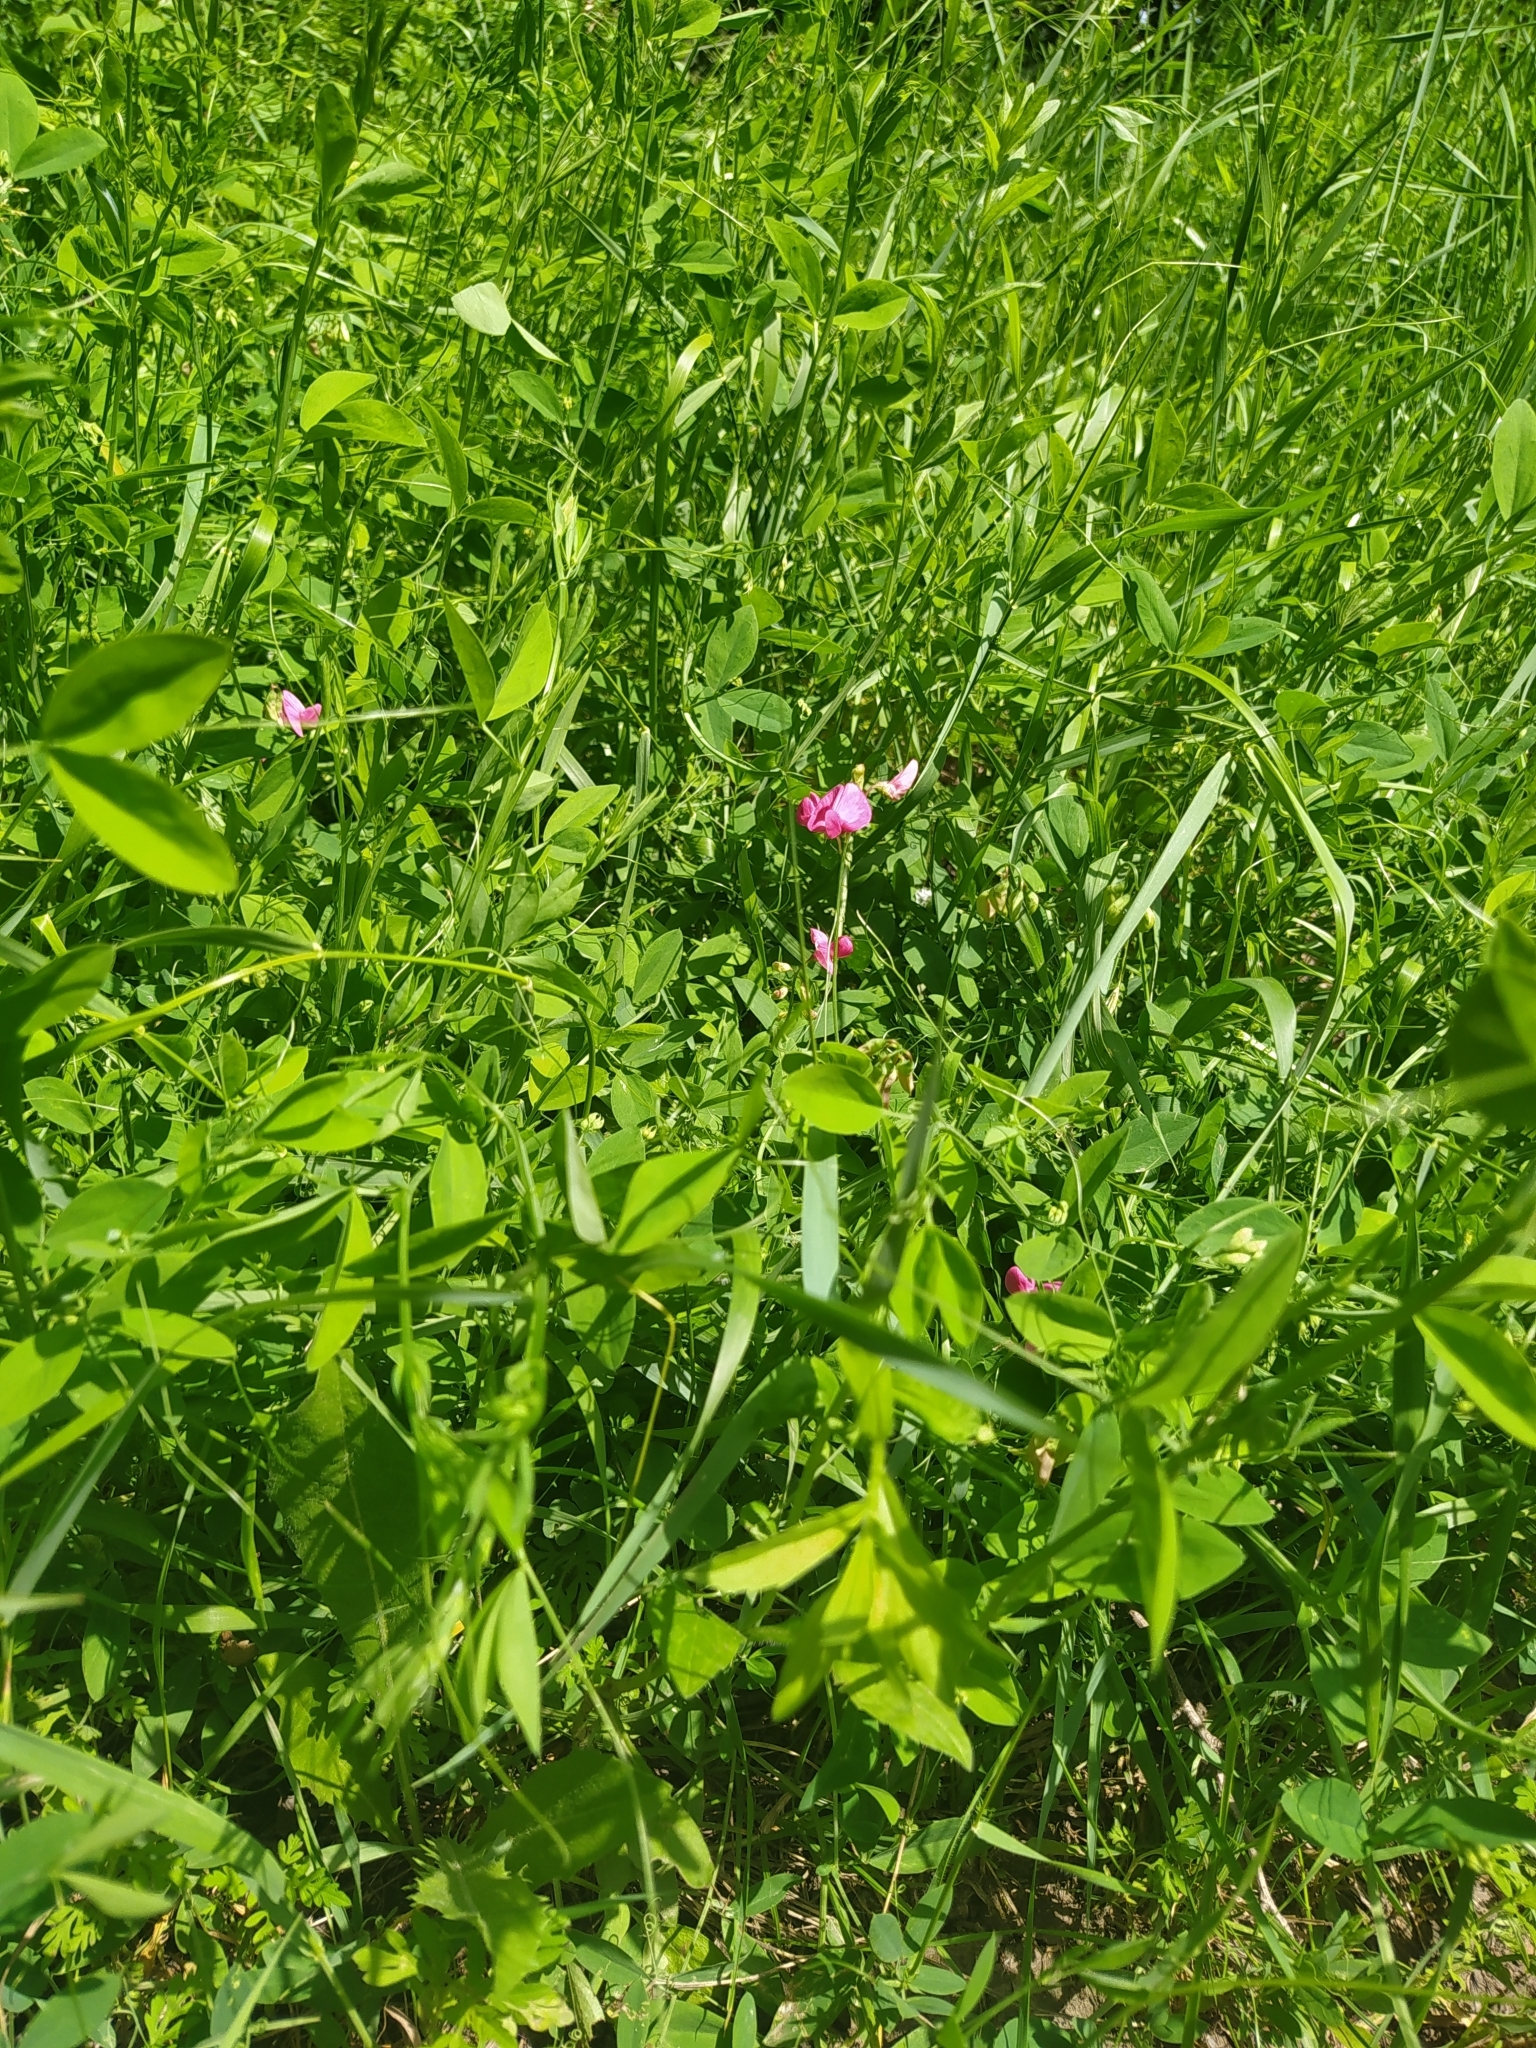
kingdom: Plantae
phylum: Tracheophyta
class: Magnoliopsida
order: Fabales
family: Fabaceae
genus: Lathyrus
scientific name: Lathyrus tuberosus
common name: Tuberous pea
